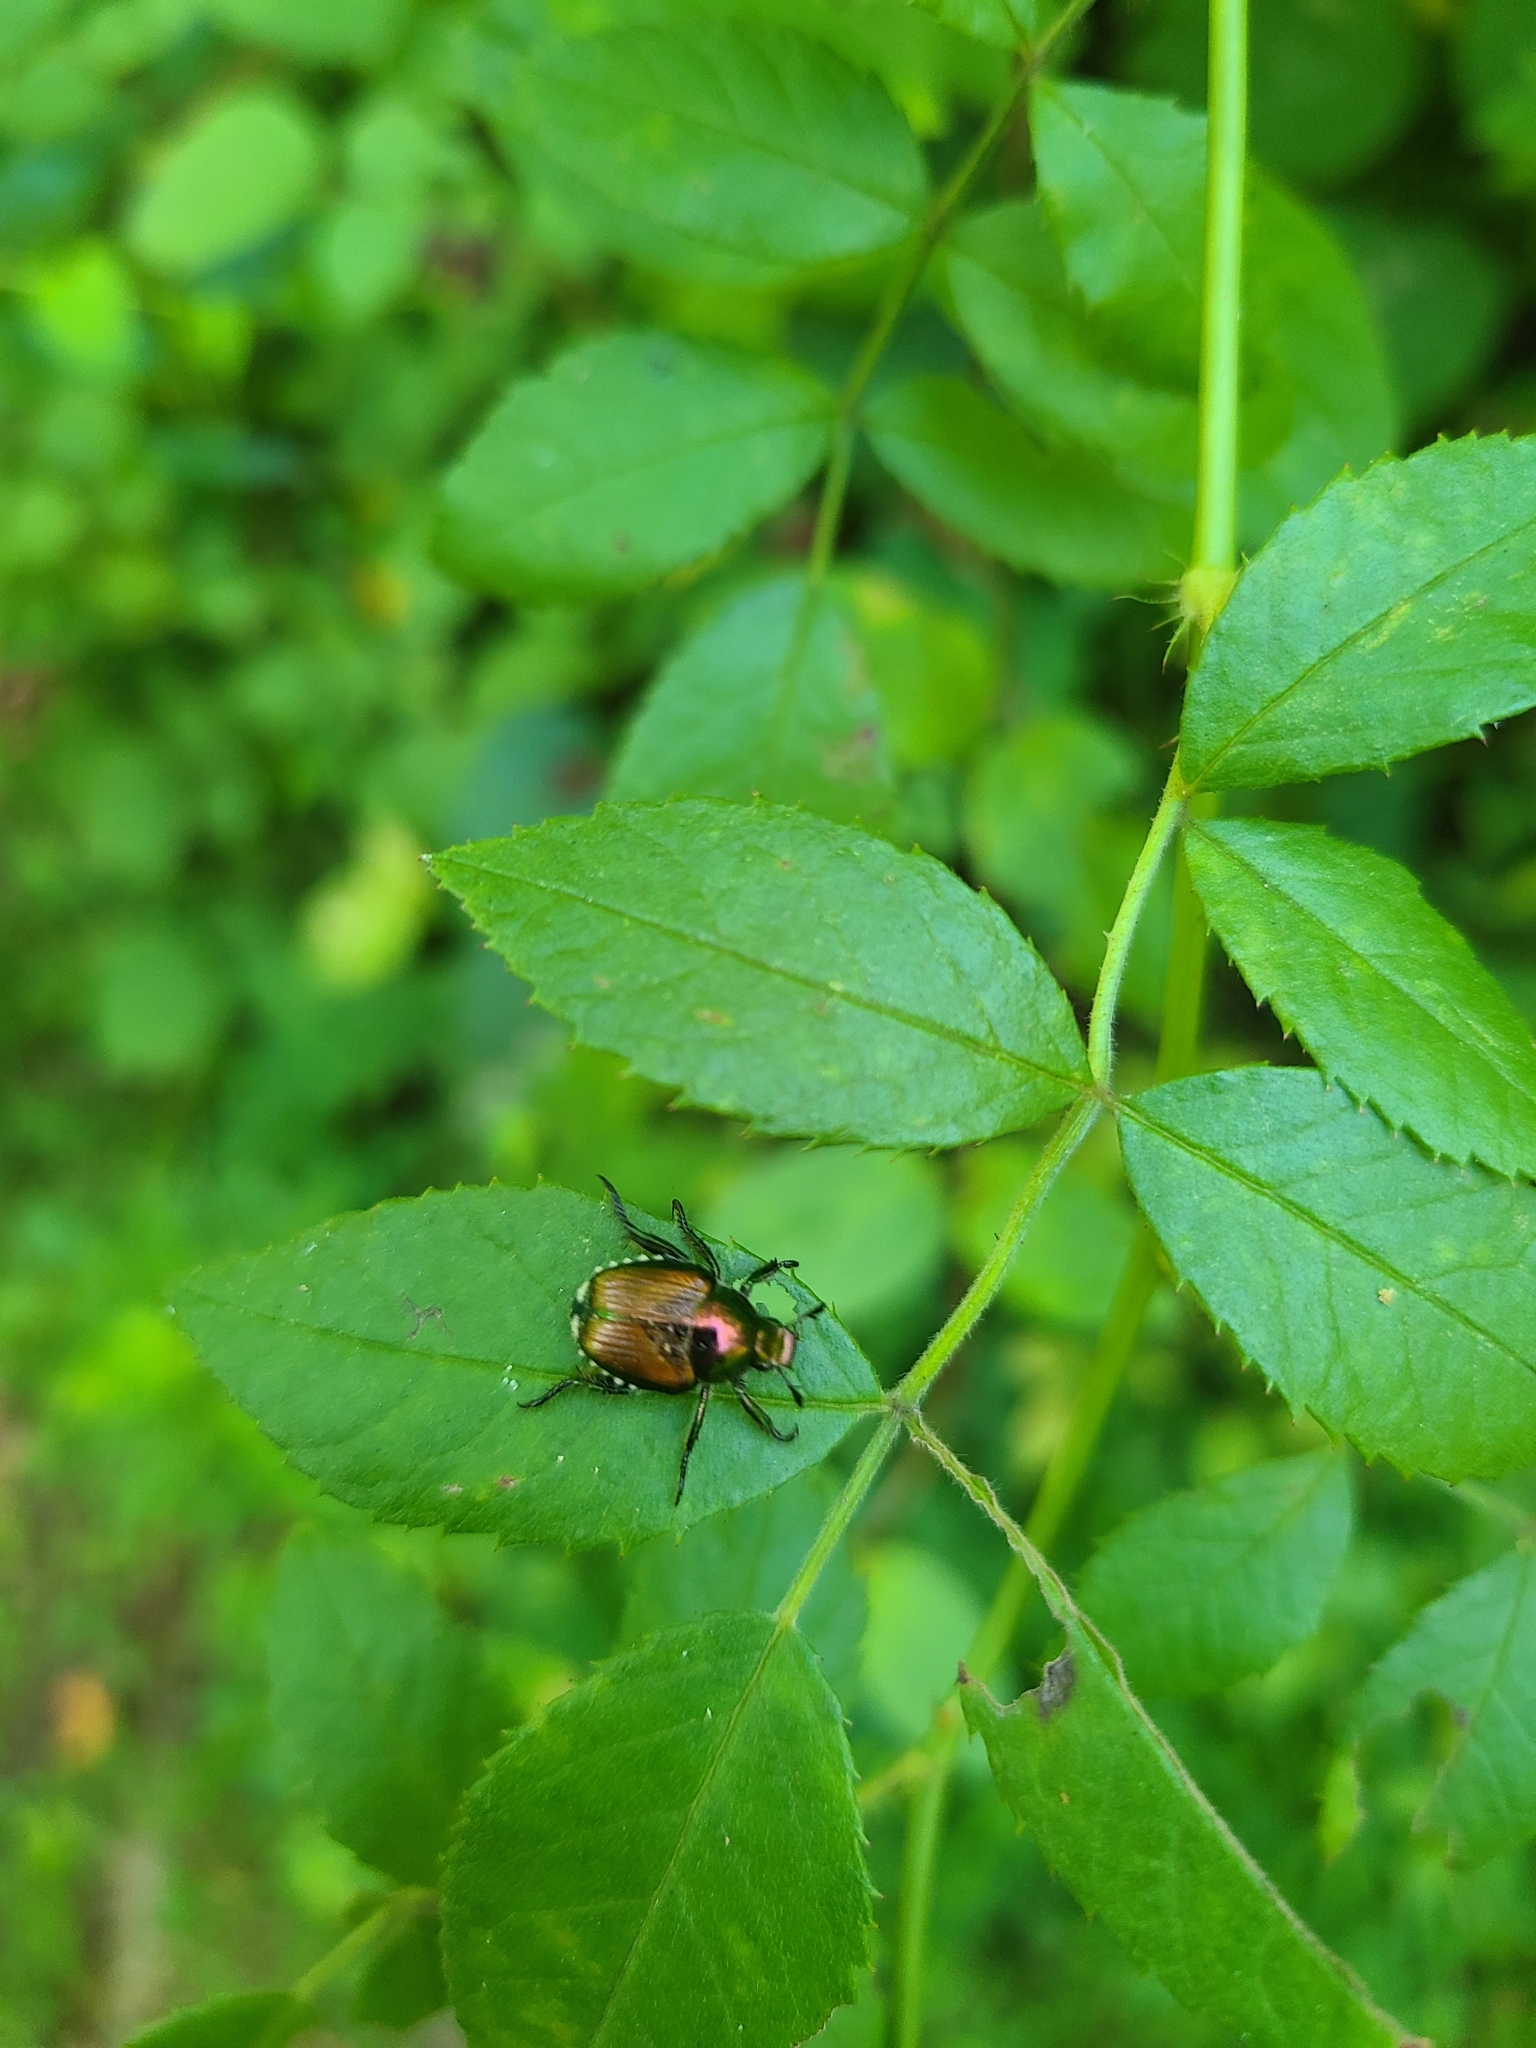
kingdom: Animalia
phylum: Arthropoda
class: Insecta
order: Coleoptera
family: Scarabaeidae
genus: Popillia
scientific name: Popillia japonica
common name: Japanese beetle
